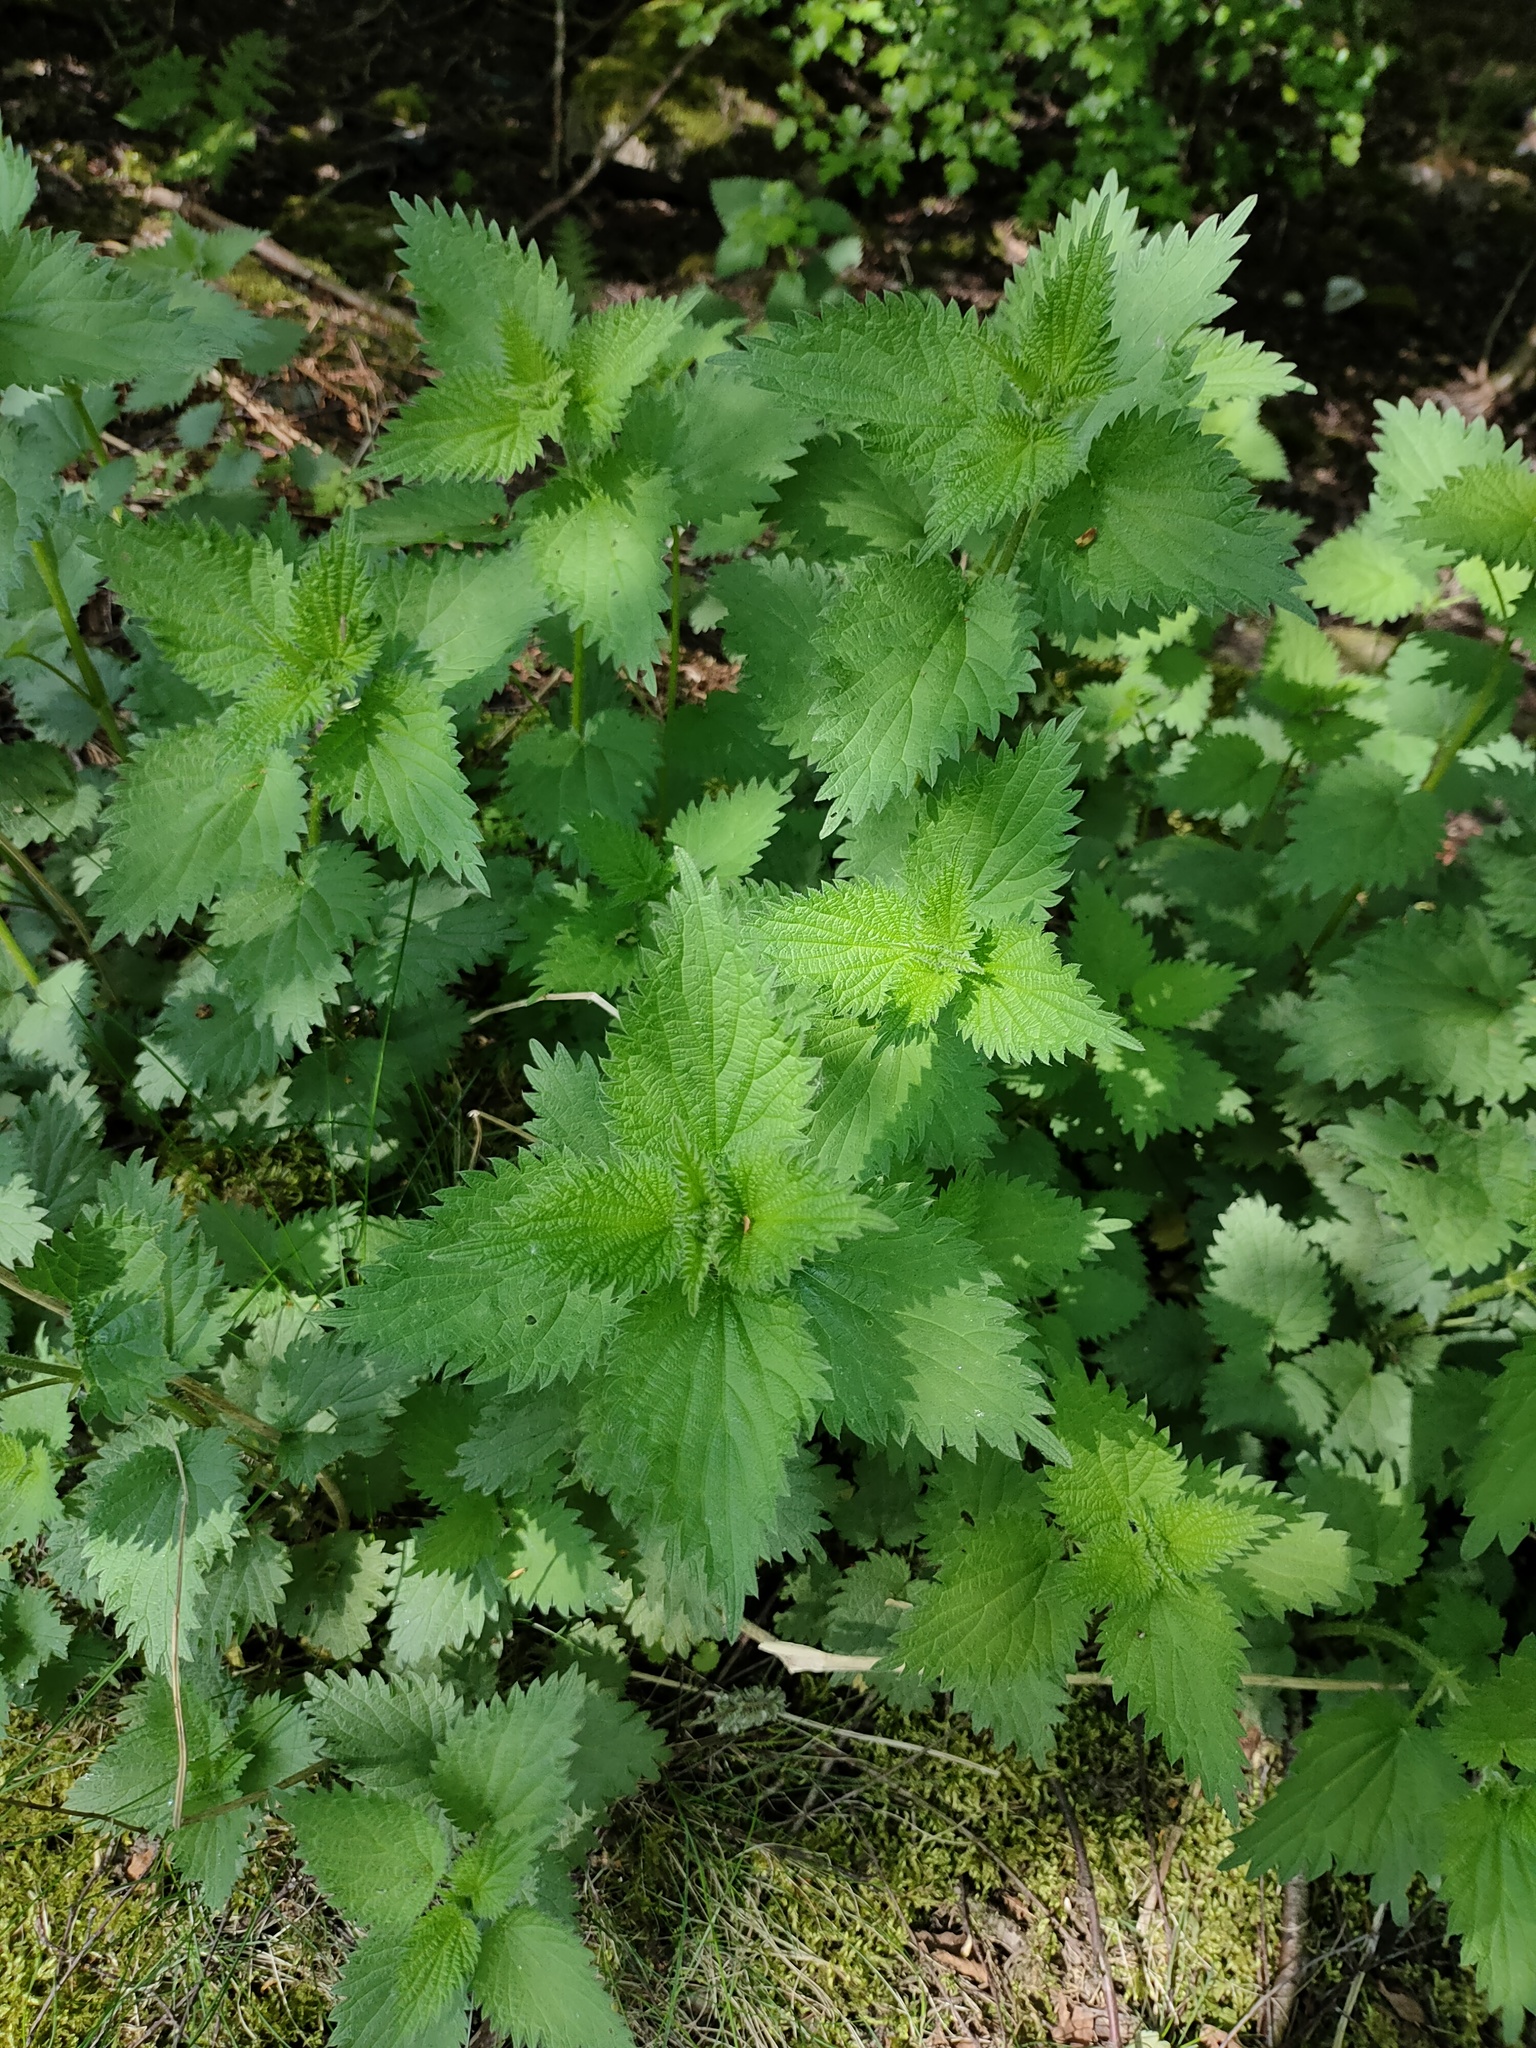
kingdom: Plantae
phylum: Tracheophyta
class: Magnoliopsida
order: Rosales
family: Urticaceae
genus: Urtica
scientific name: Urtica dioica
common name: Common nettle
